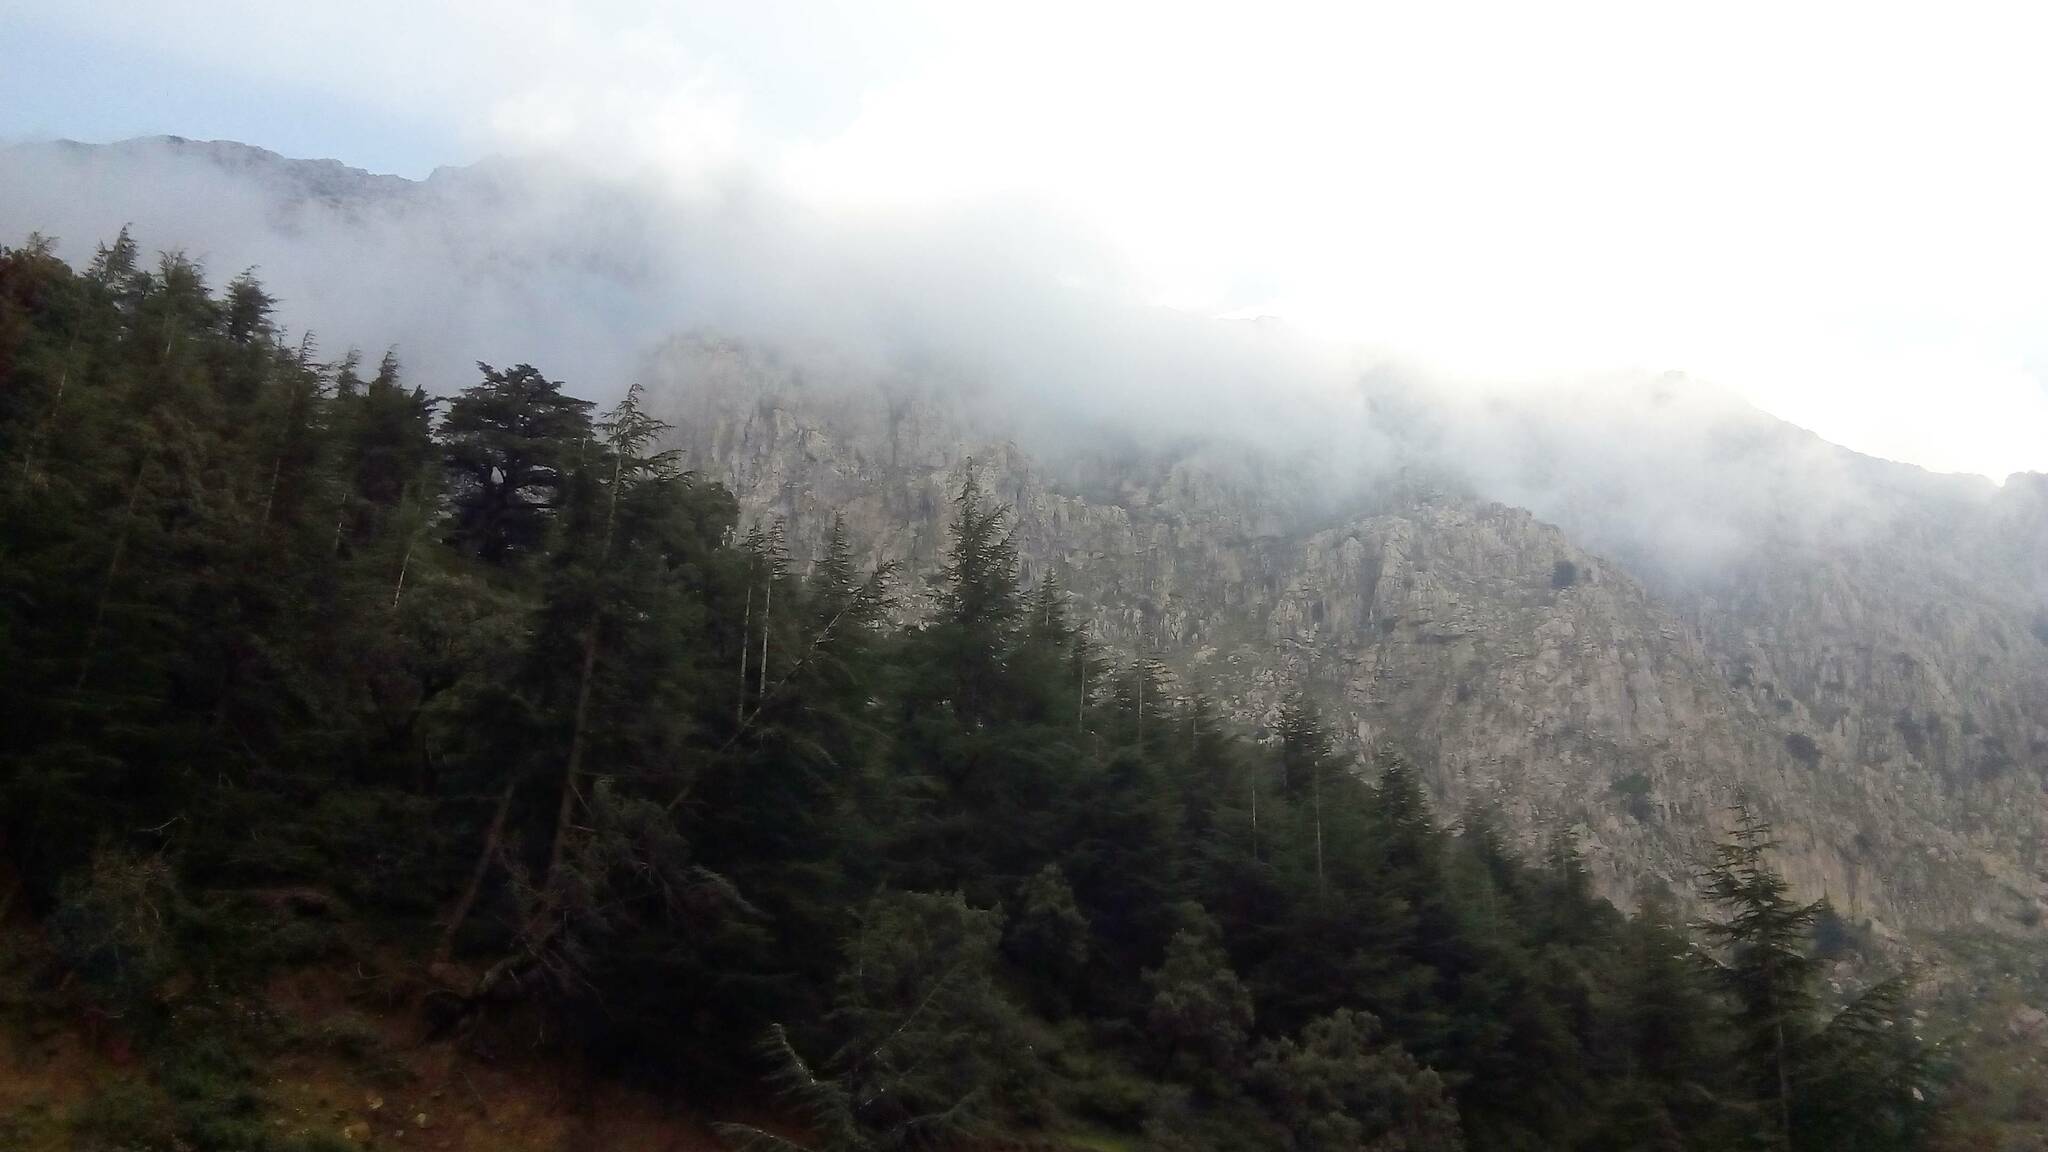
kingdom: Plantae
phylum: Tracheophyta
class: Pinopsida
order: Pinales
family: Pinaceae
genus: Cedrus
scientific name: Cedrus atlantica
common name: Atlas cedar
